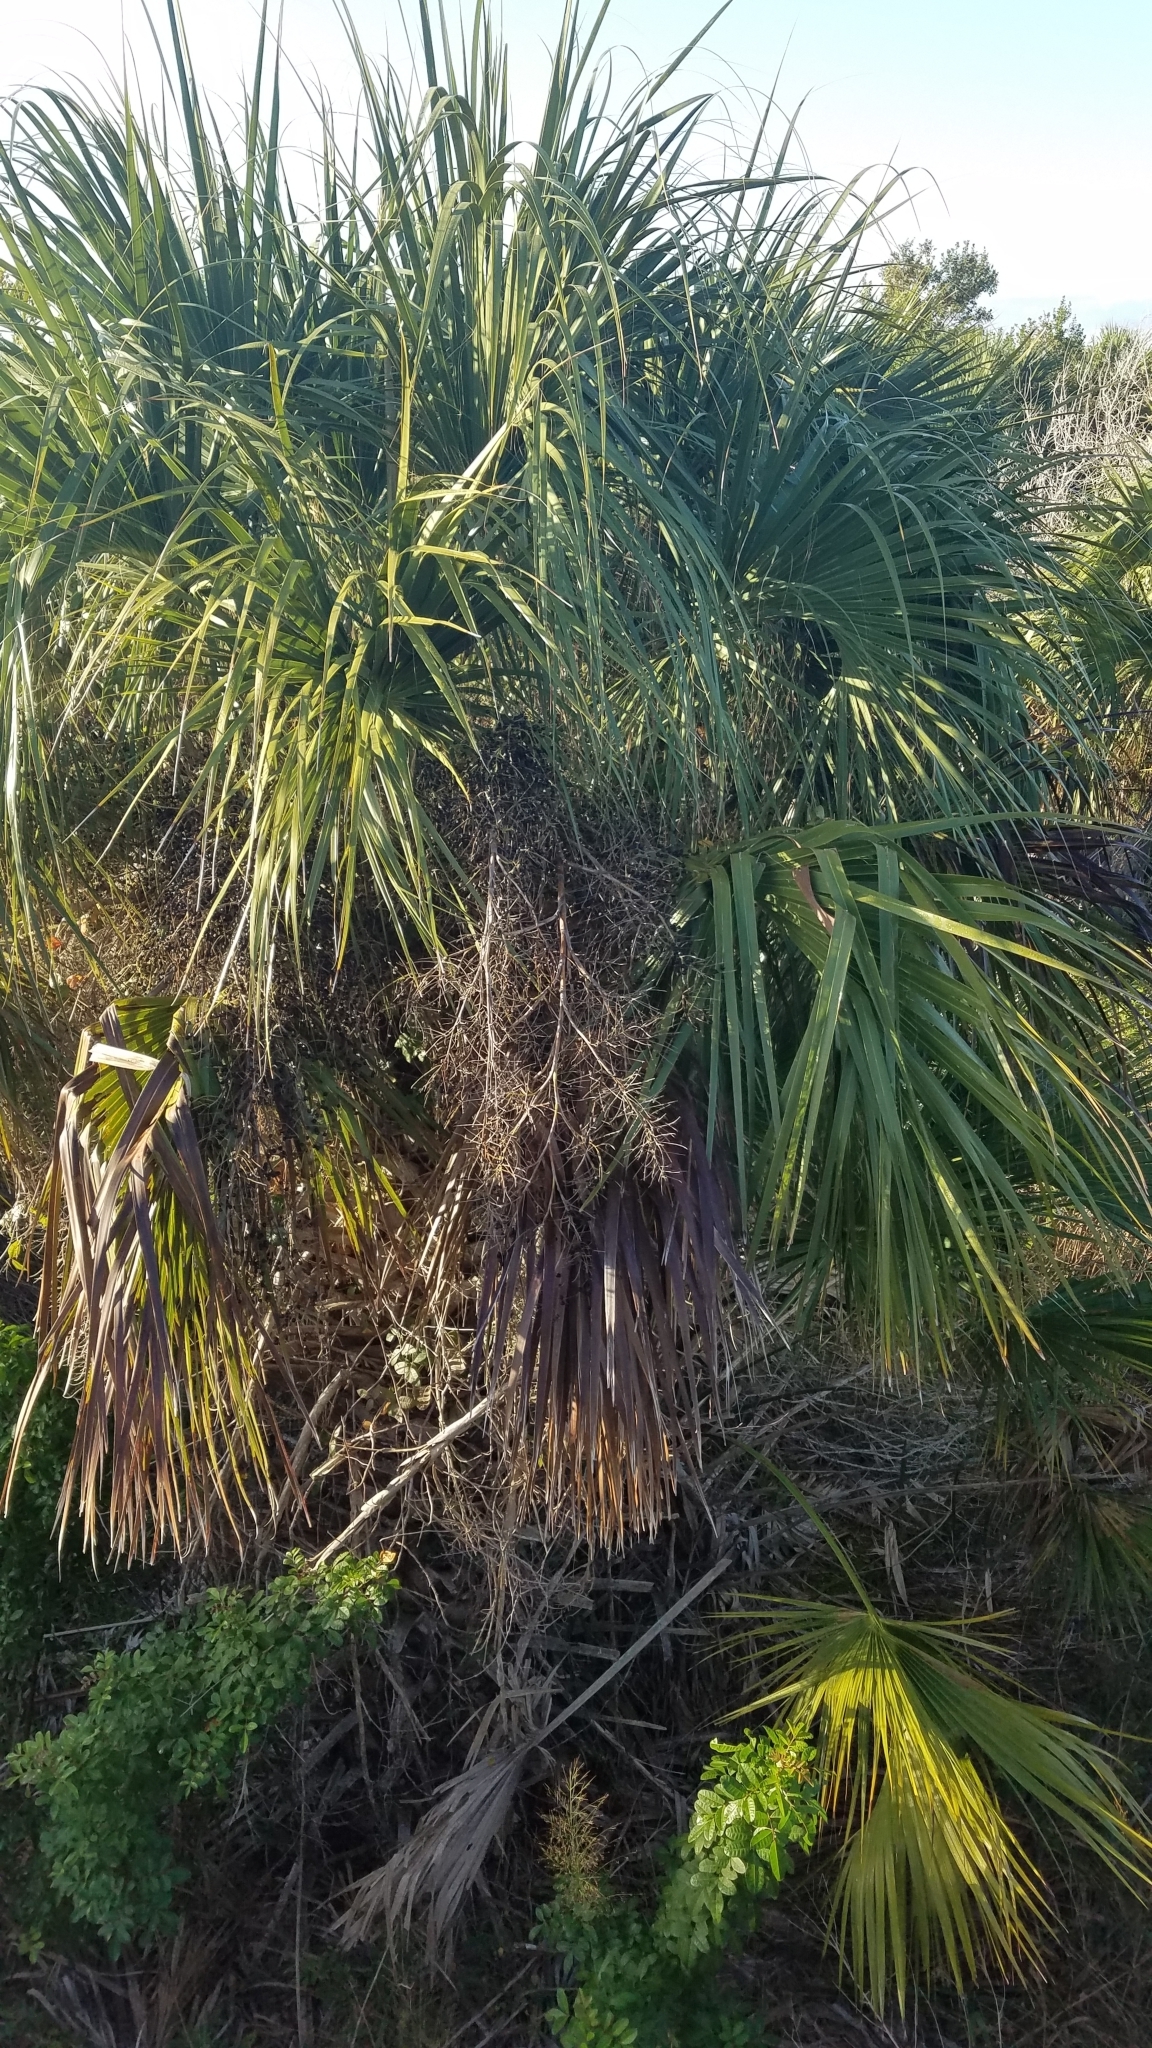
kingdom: Plantae
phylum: Tracheophyta
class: Liliopsida
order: Arecales
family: Arecaceae
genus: Sabal
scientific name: Sabal palmetto
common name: Blue palmetto
